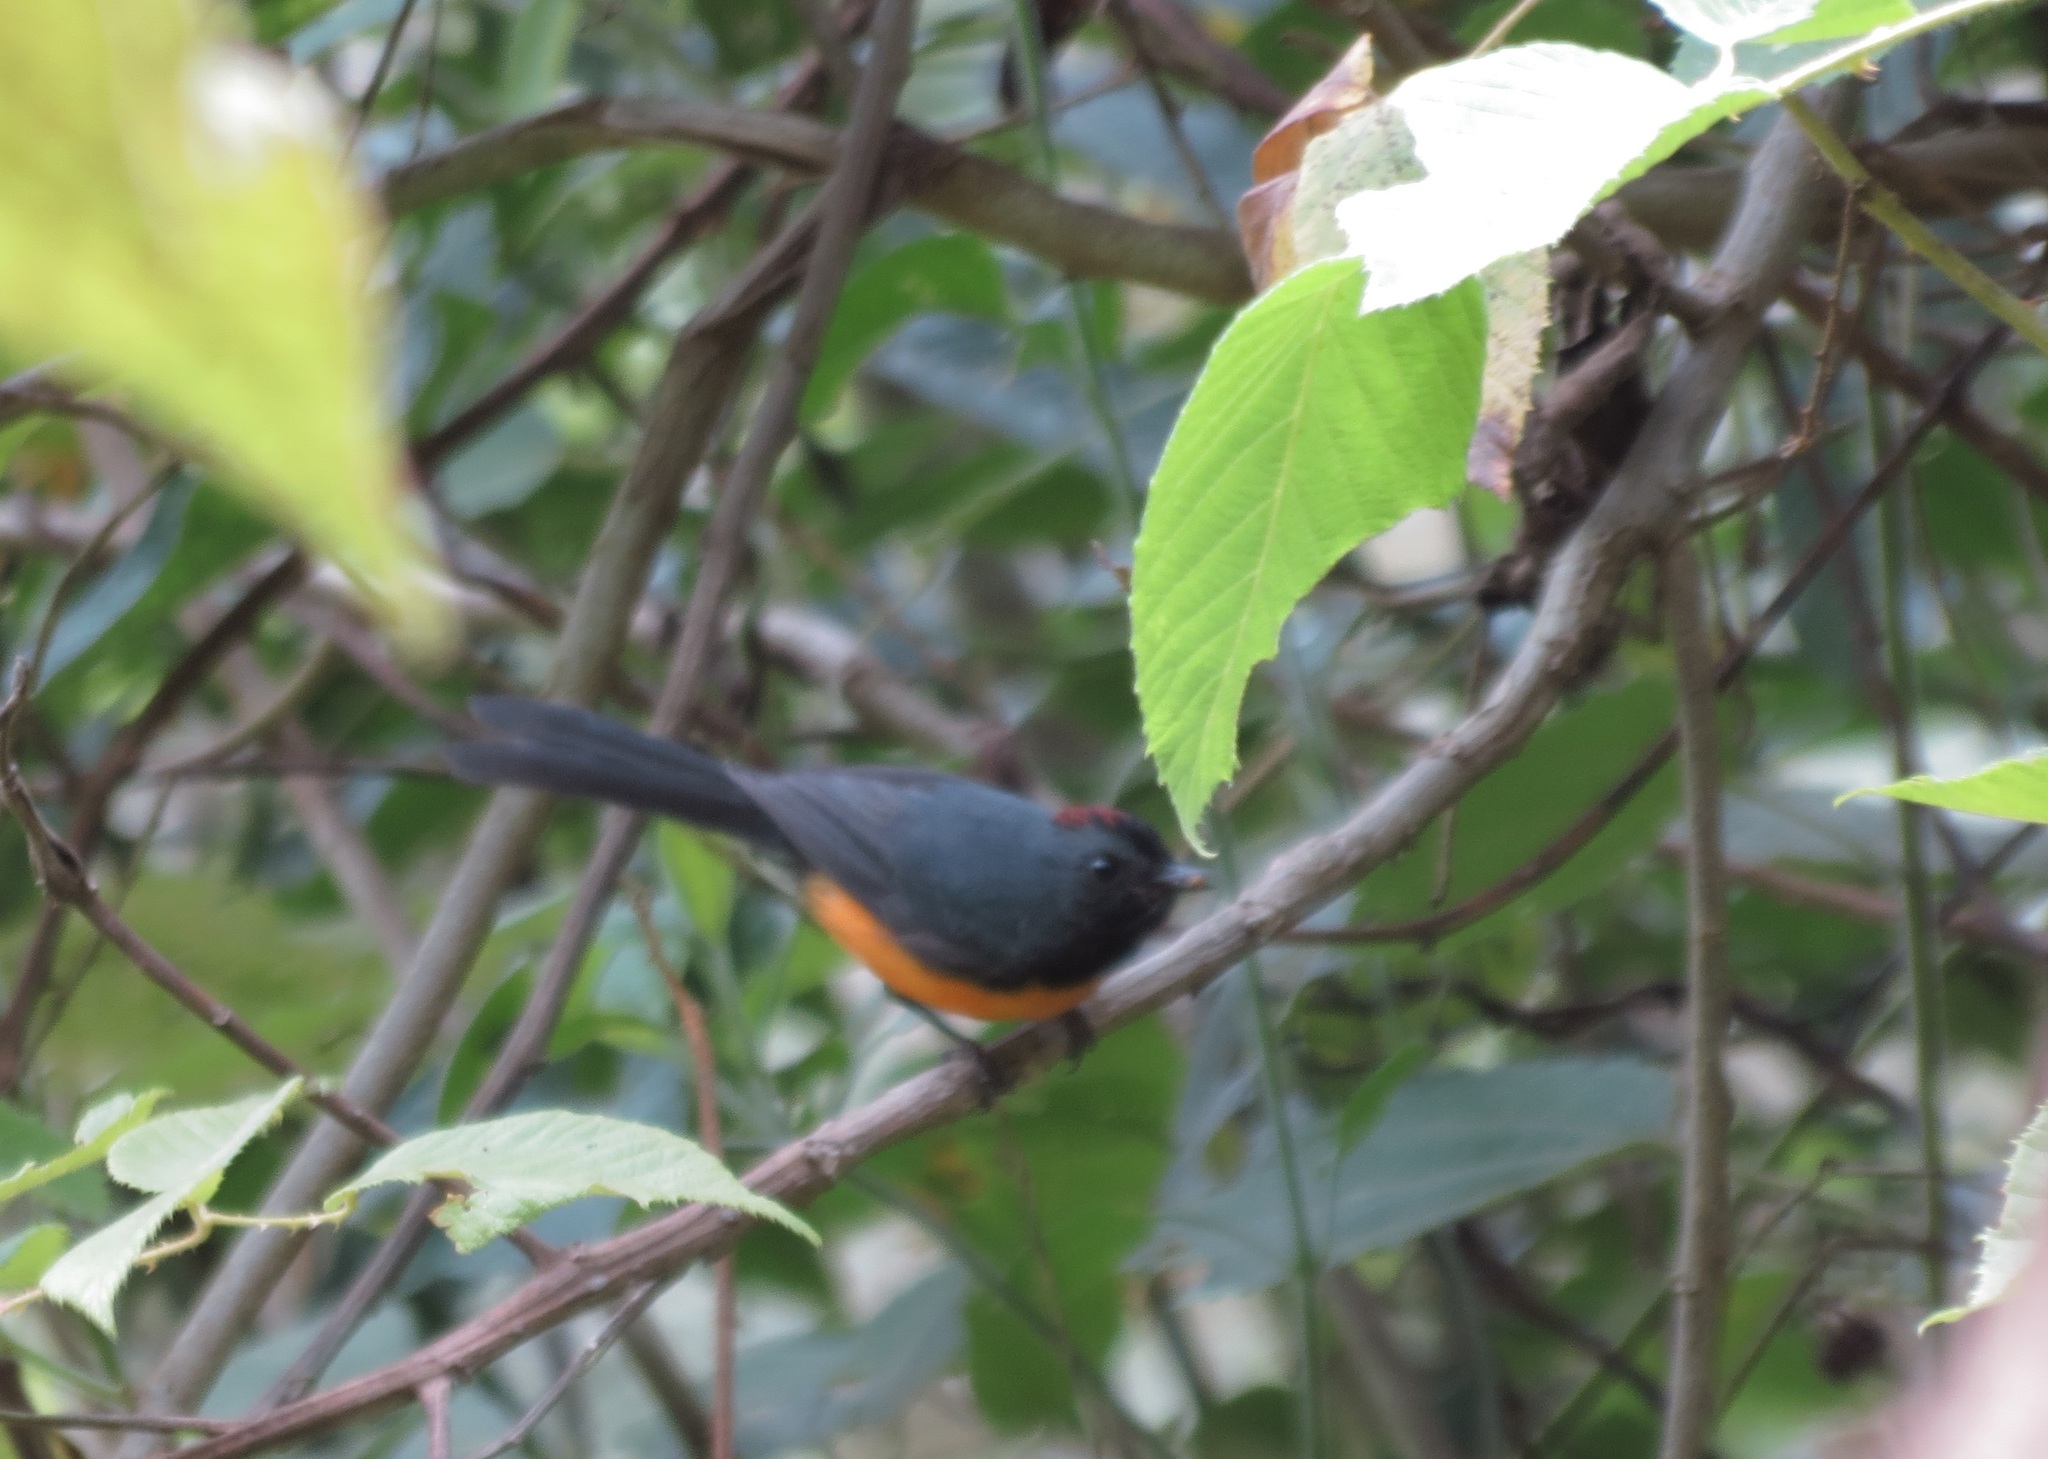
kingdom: Animalia
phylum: Chordata
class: Aves
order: Passeriformes
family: Parulidae
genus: Myioborus
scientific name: Myioborus miniatus
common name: Slate-throated redstart
